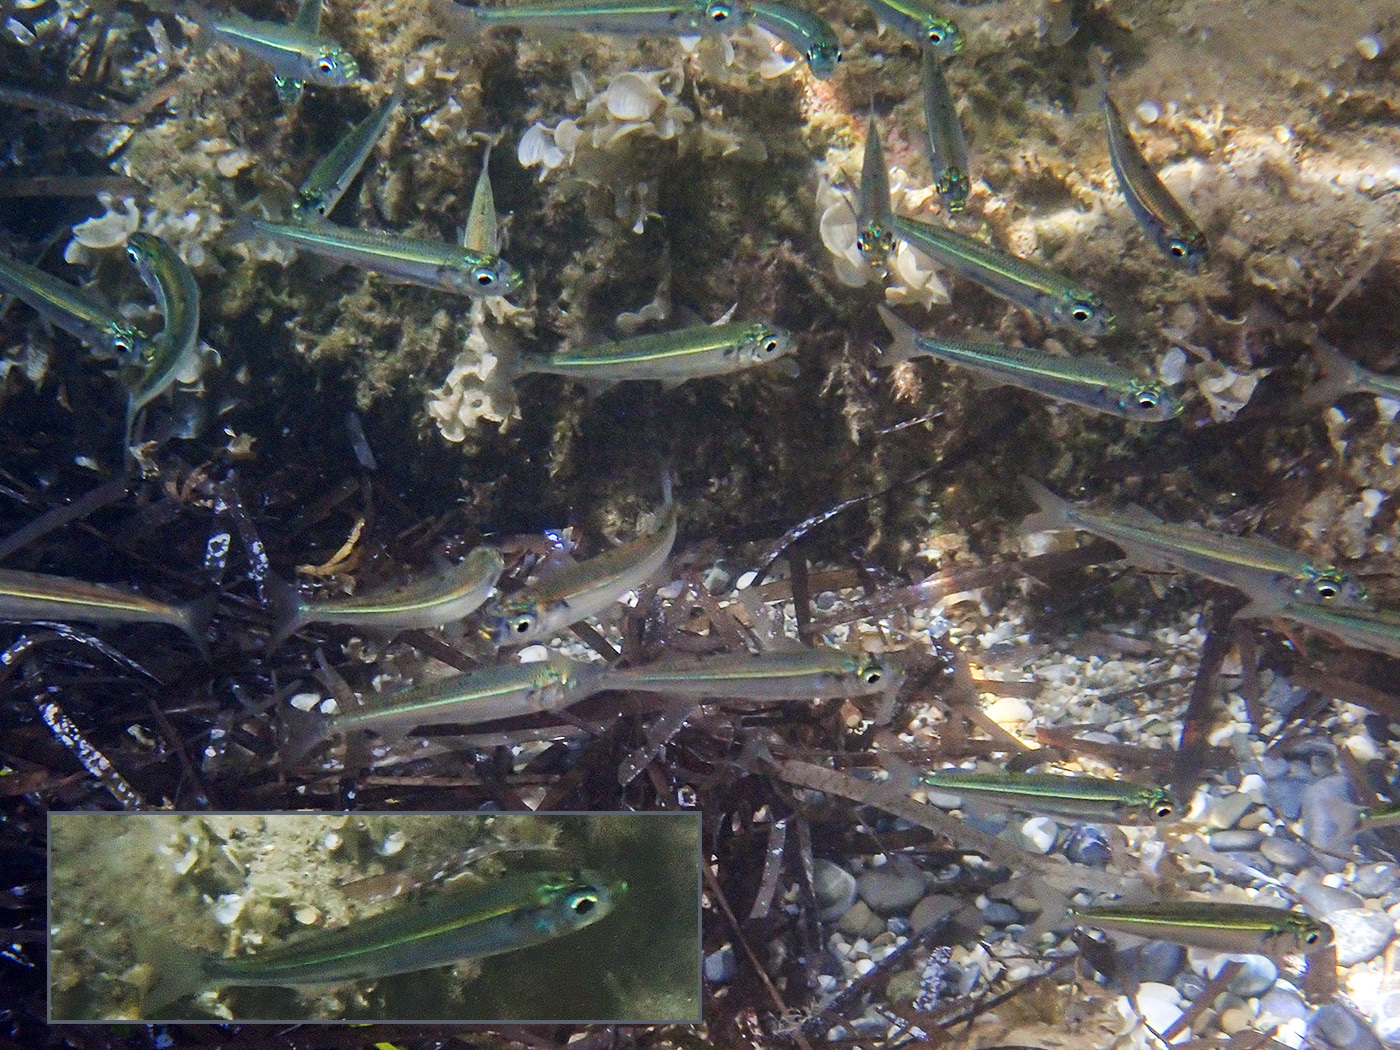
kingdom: Animalia
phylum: Chordata
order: Atheriniformes
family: Atherinidae
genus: Atherina
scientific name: Atherina boyeri
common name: Big-scale sand smelt
